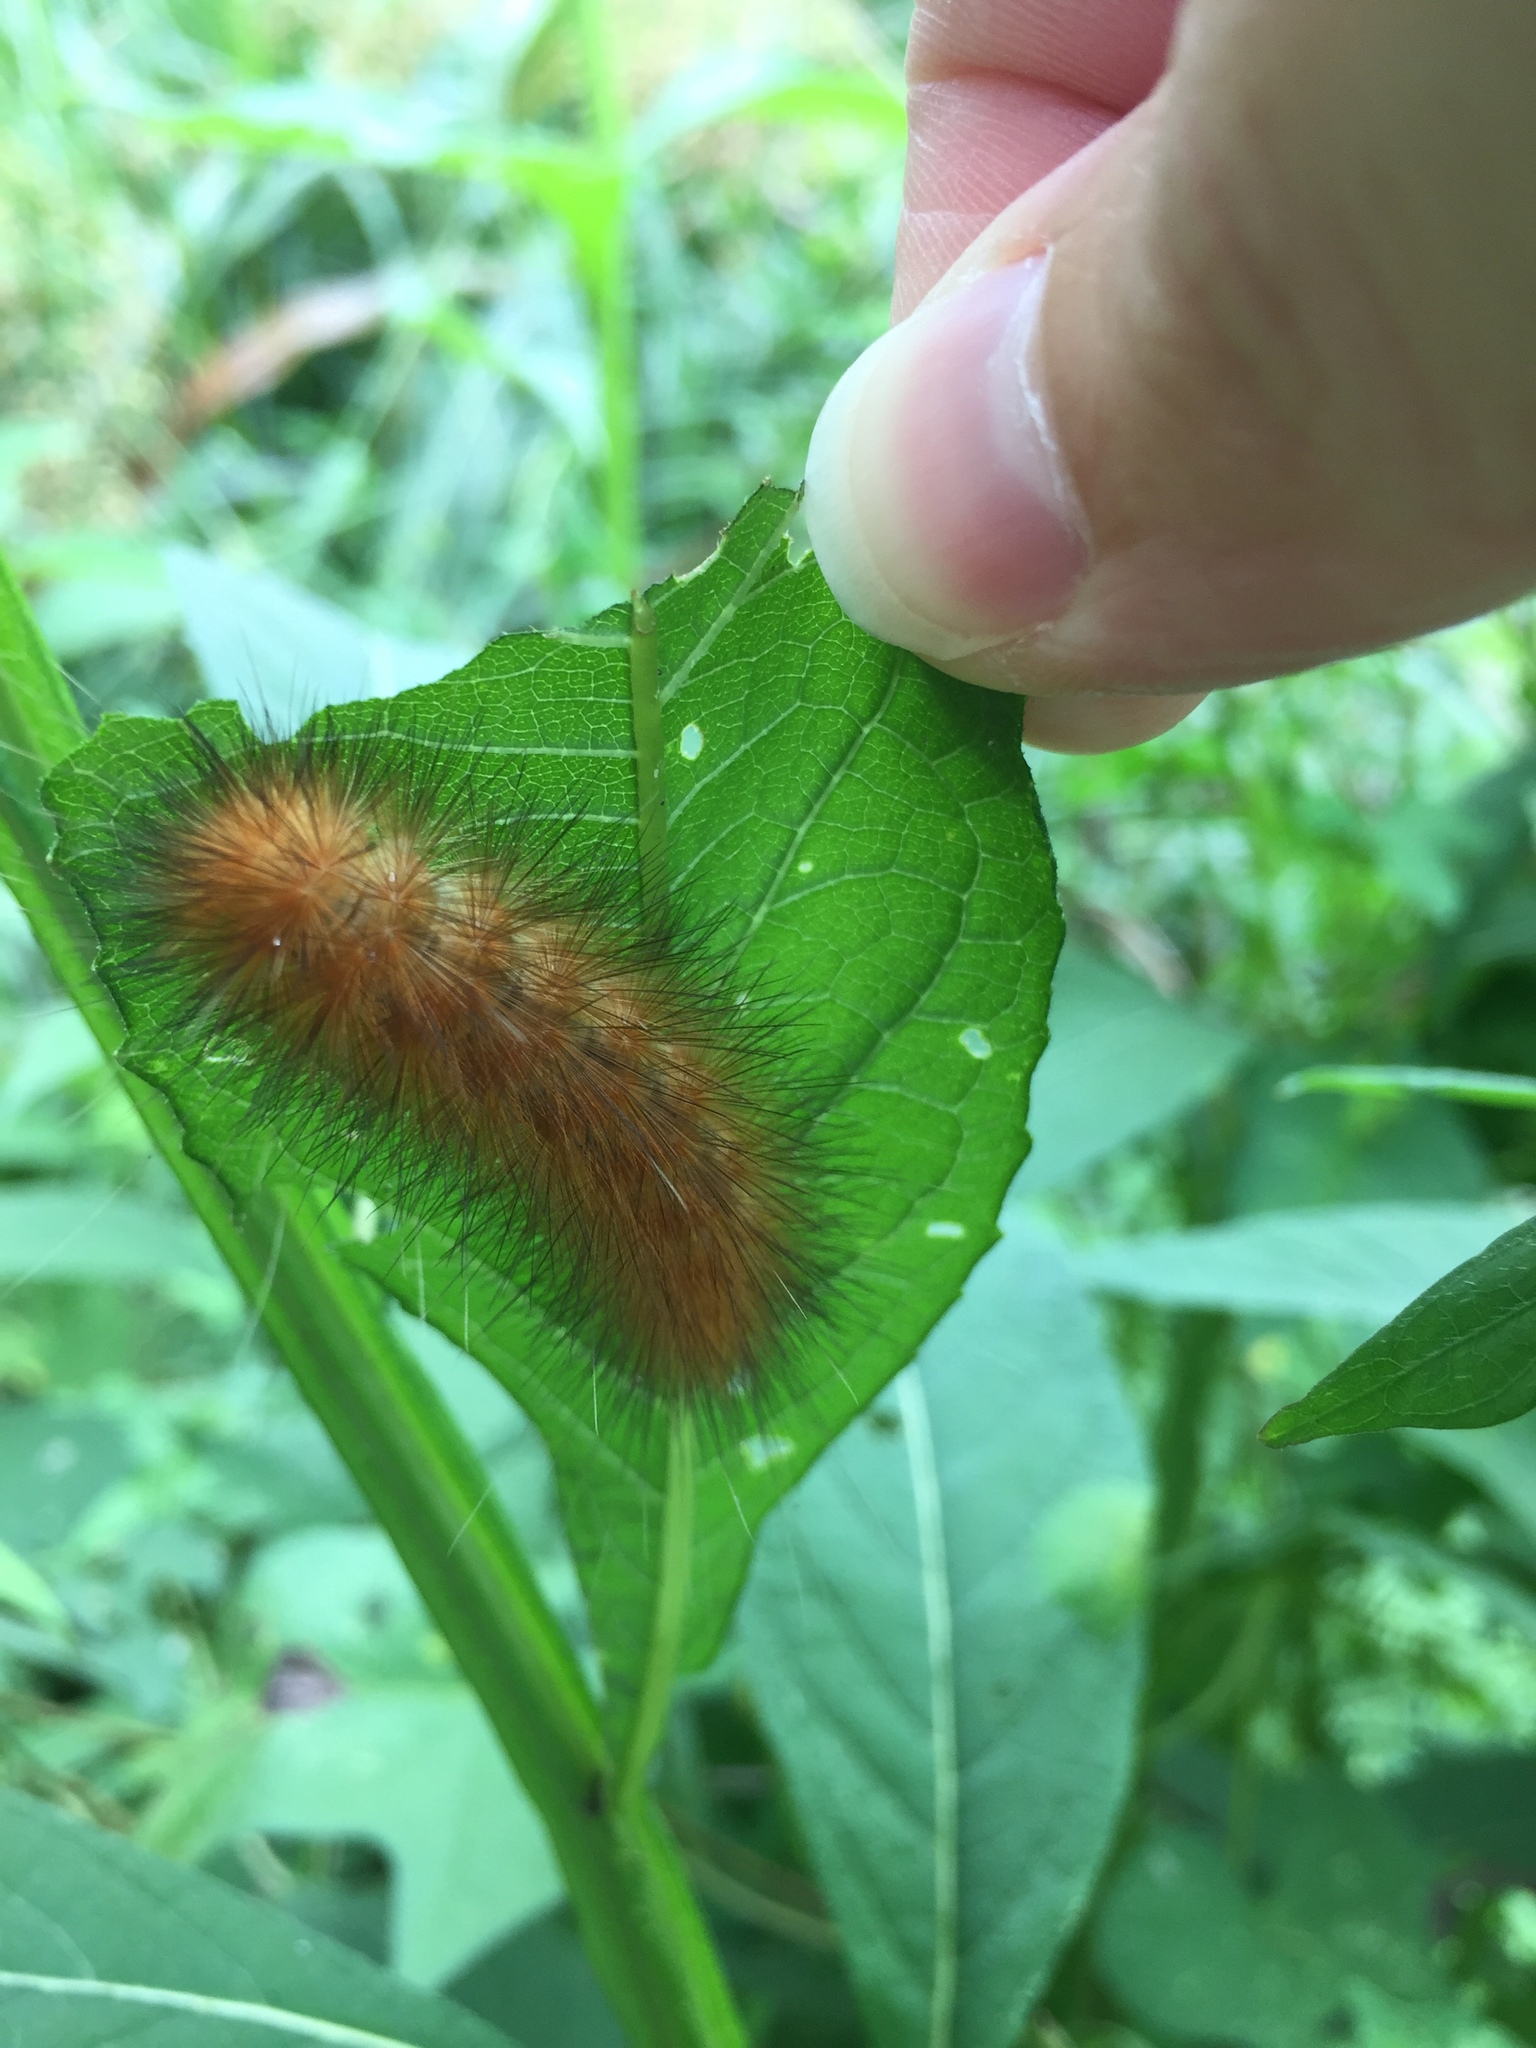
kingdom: Animalia
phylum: Arthropoda
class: Insecta
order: Lepidoptera
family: Erebidae
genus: Spilosoma
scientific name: Spilosoma virginica
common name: Virginia tiger moth
